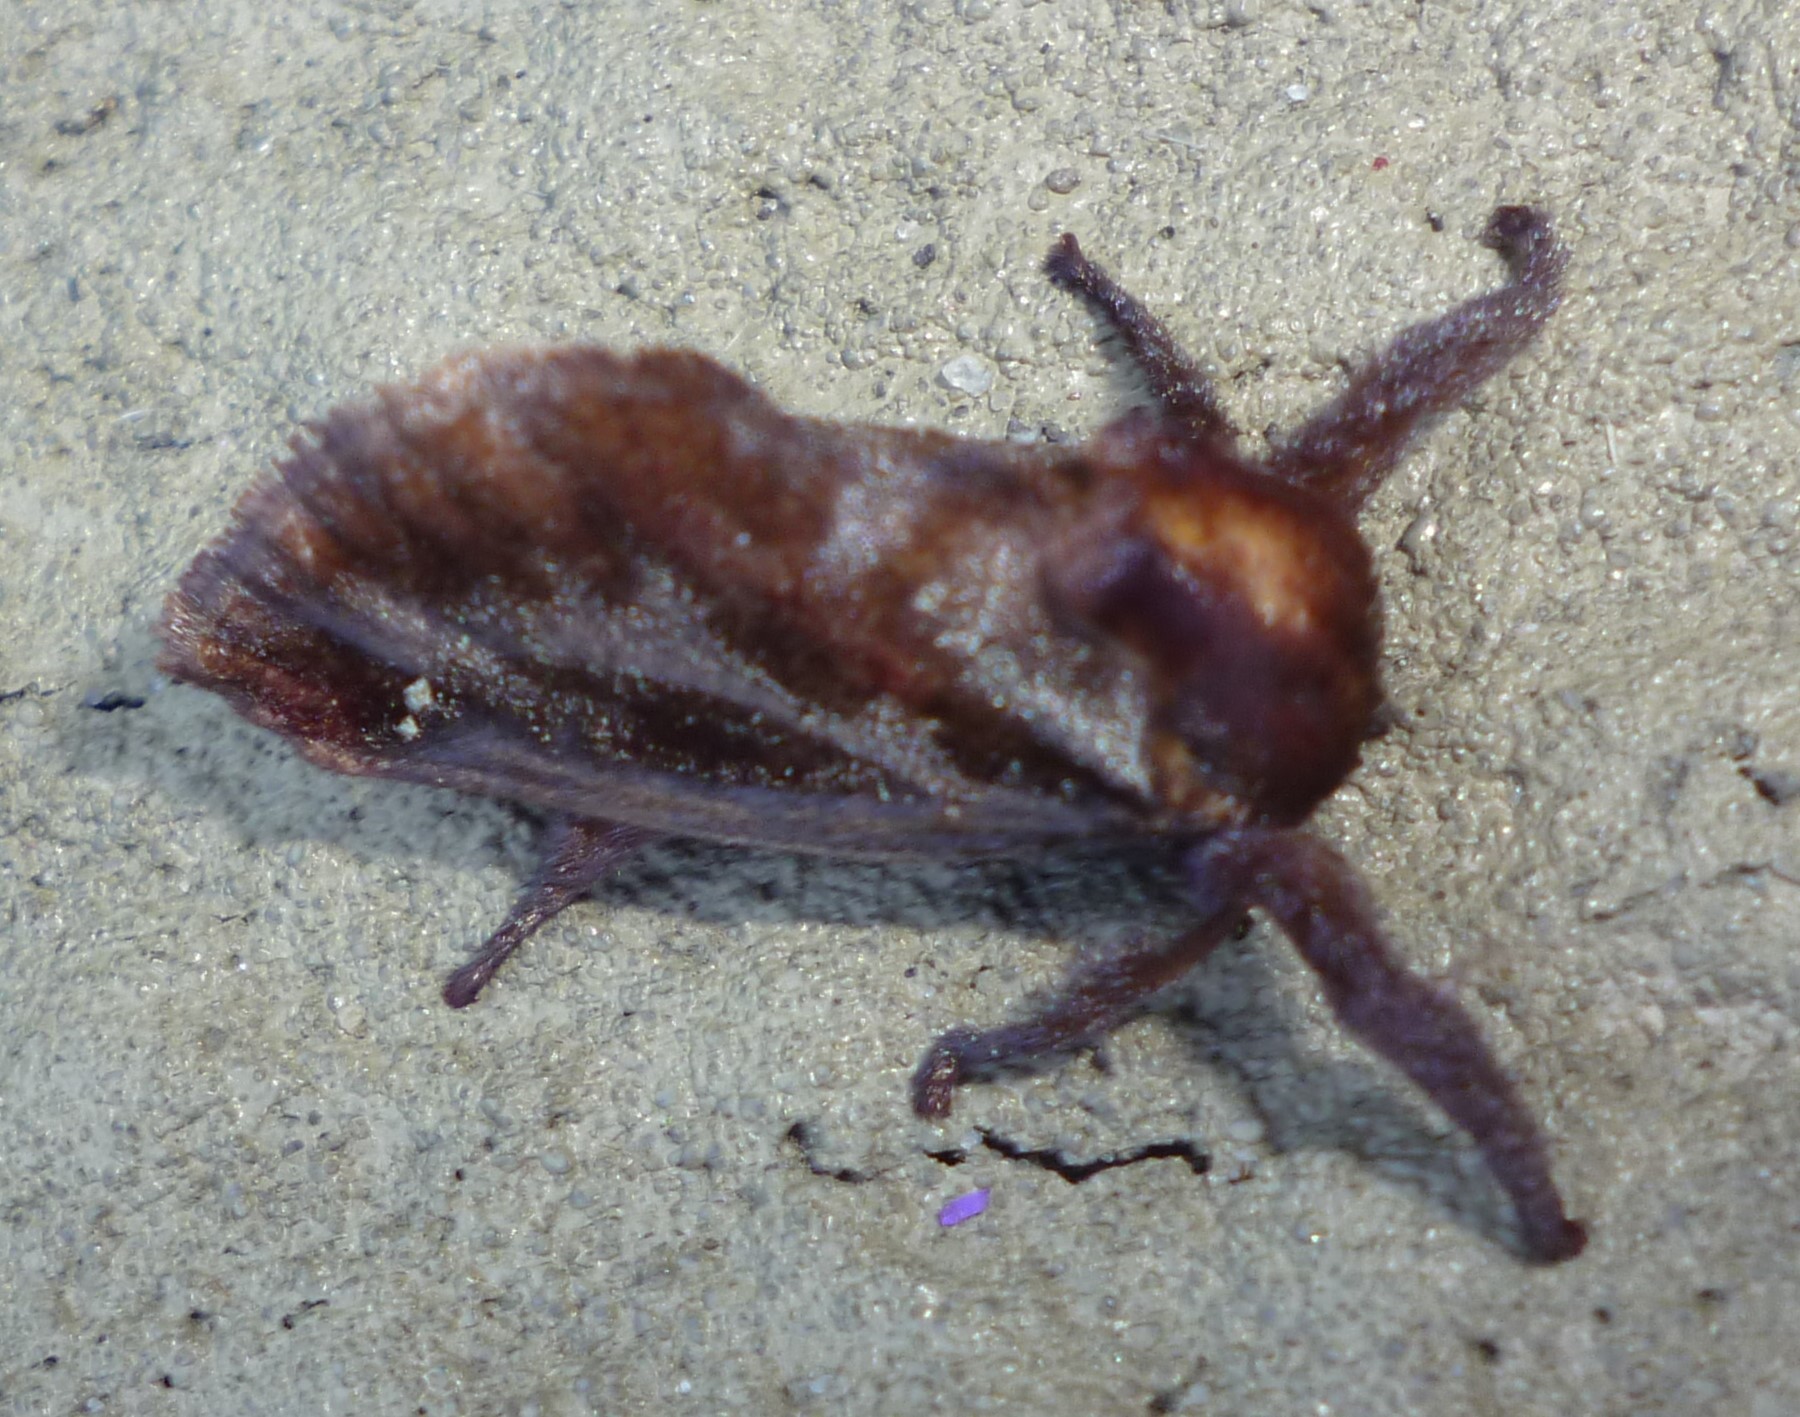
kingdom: Animalia
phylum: Arthropoda
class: Insecta
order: Lepidoptera
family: Limacodidae
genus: Acharia
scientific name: Acharia stimulea
